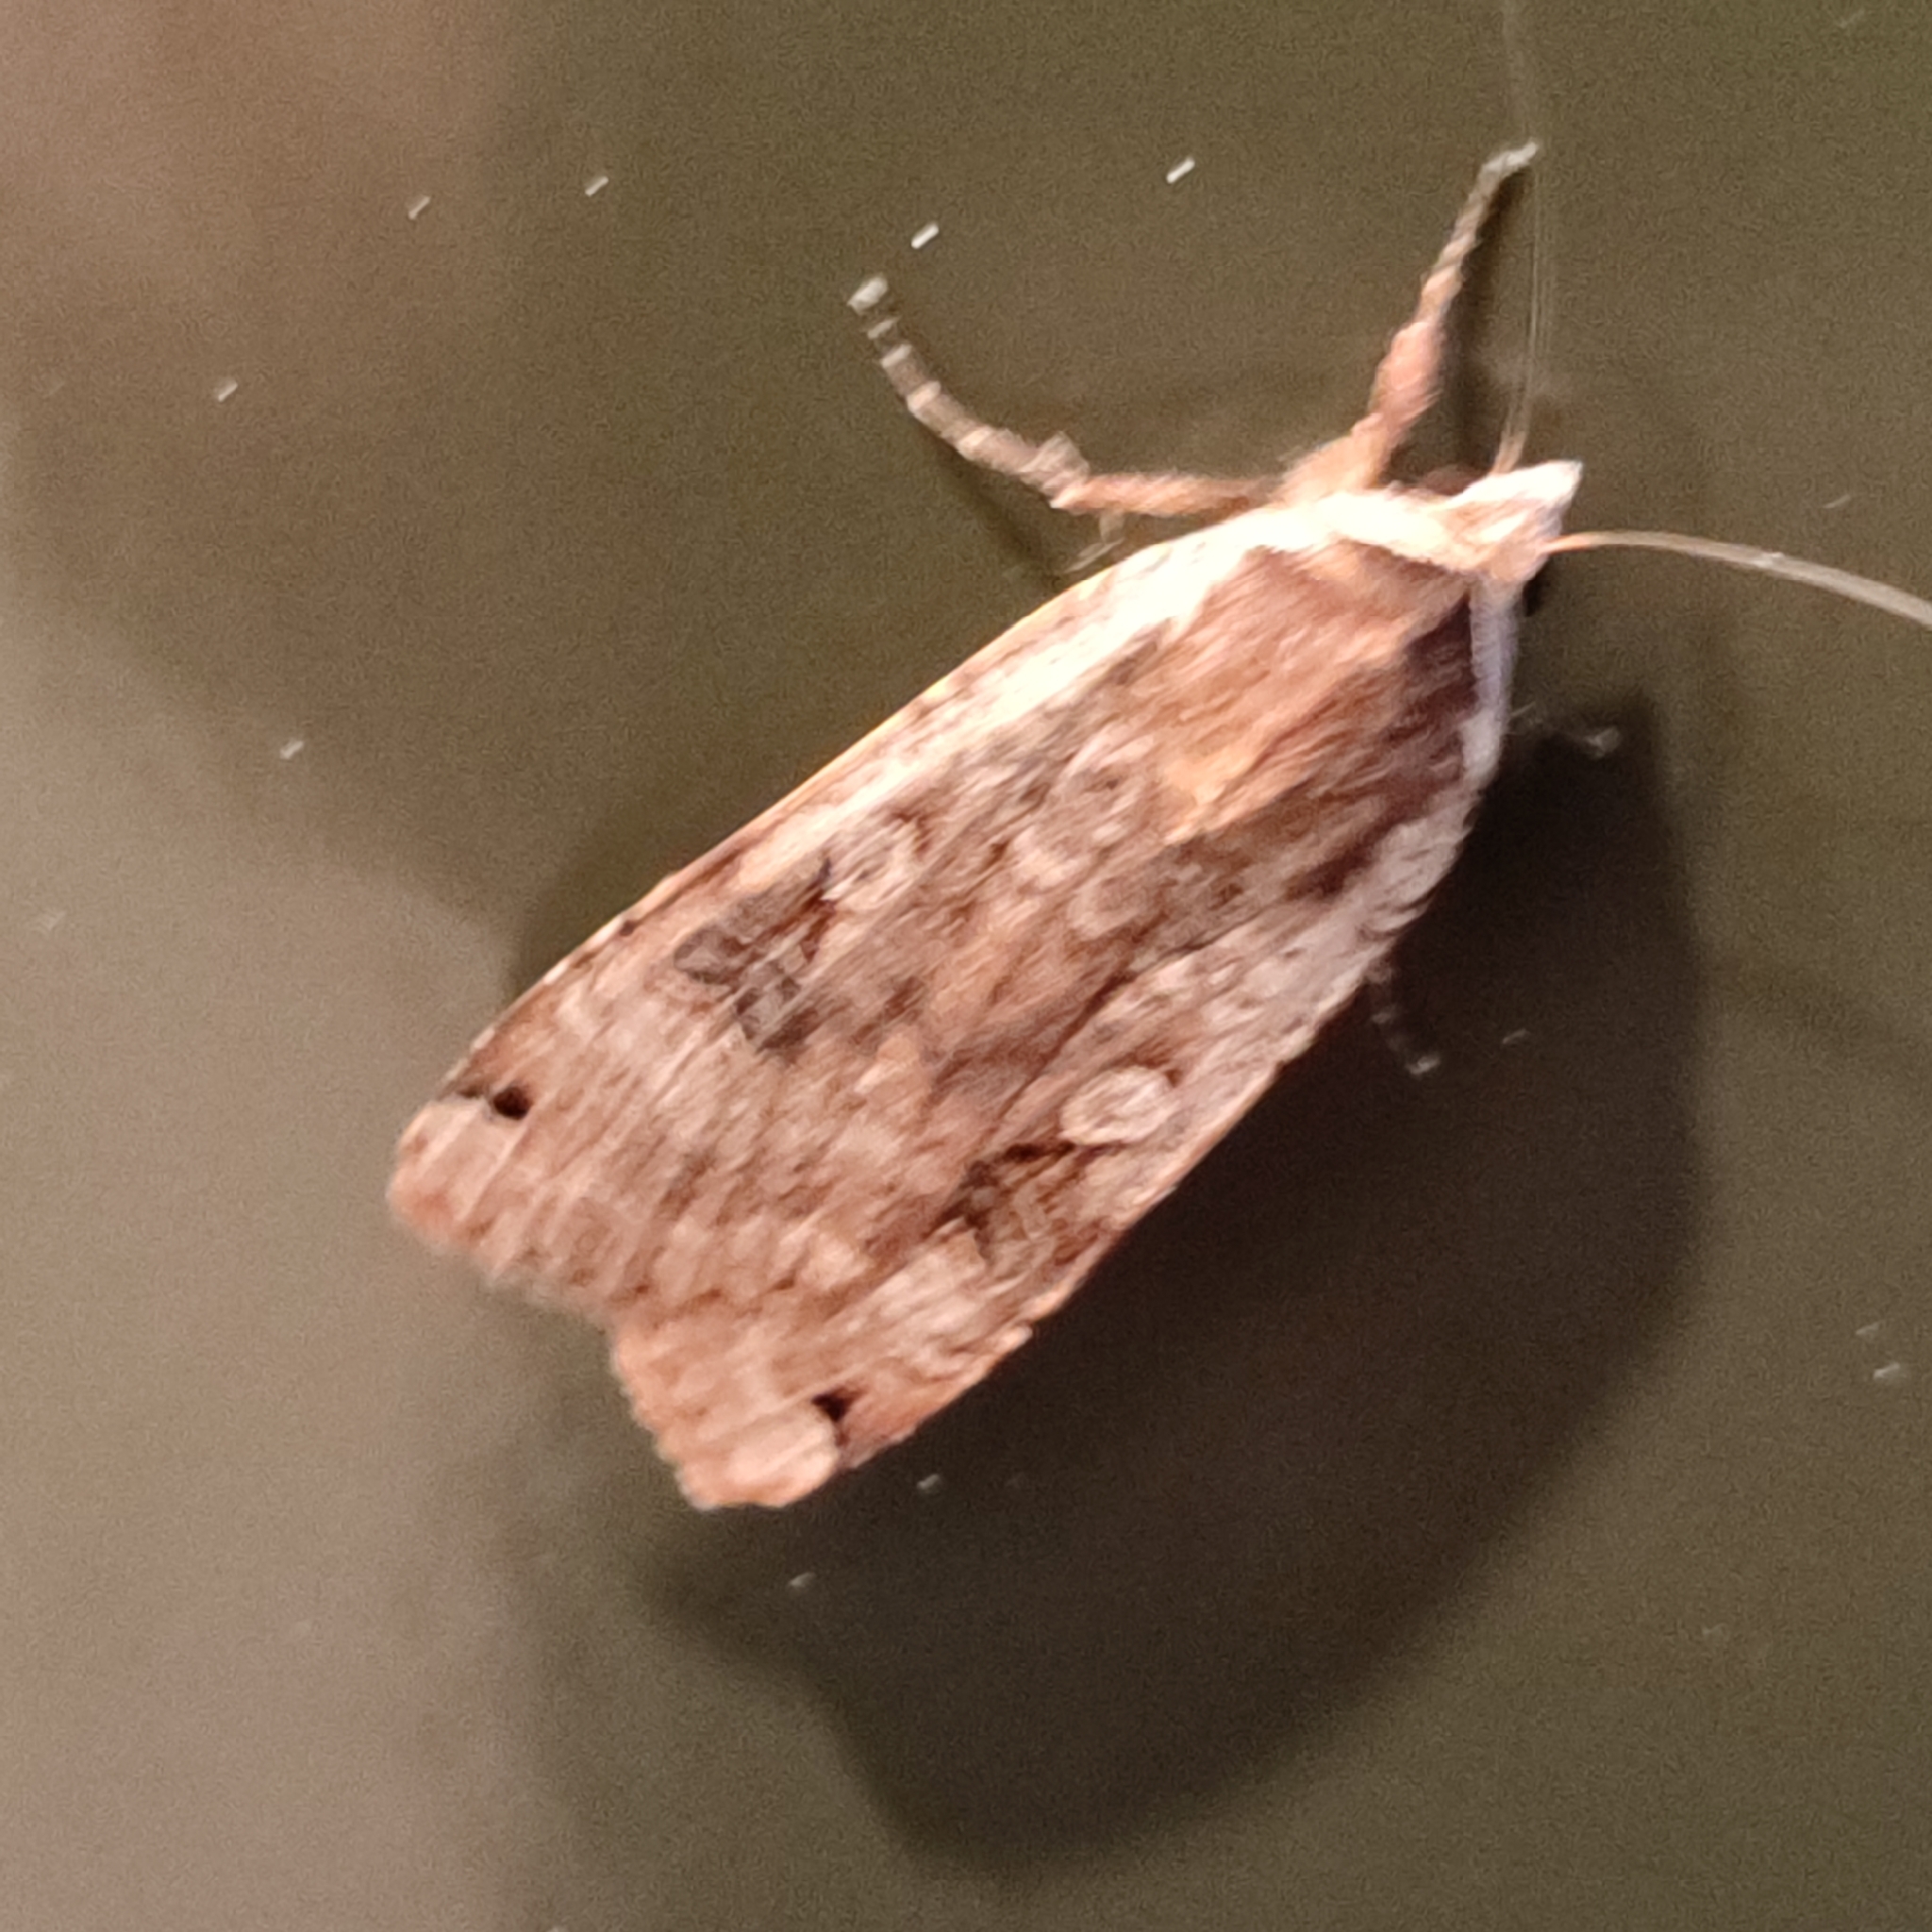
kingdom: Animalia
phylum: Arthropoda
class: Insecta
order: Lepidoptera
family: Noctuidae
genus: Noctua
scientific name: Noctua pronuba
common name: Large yellow underwing
